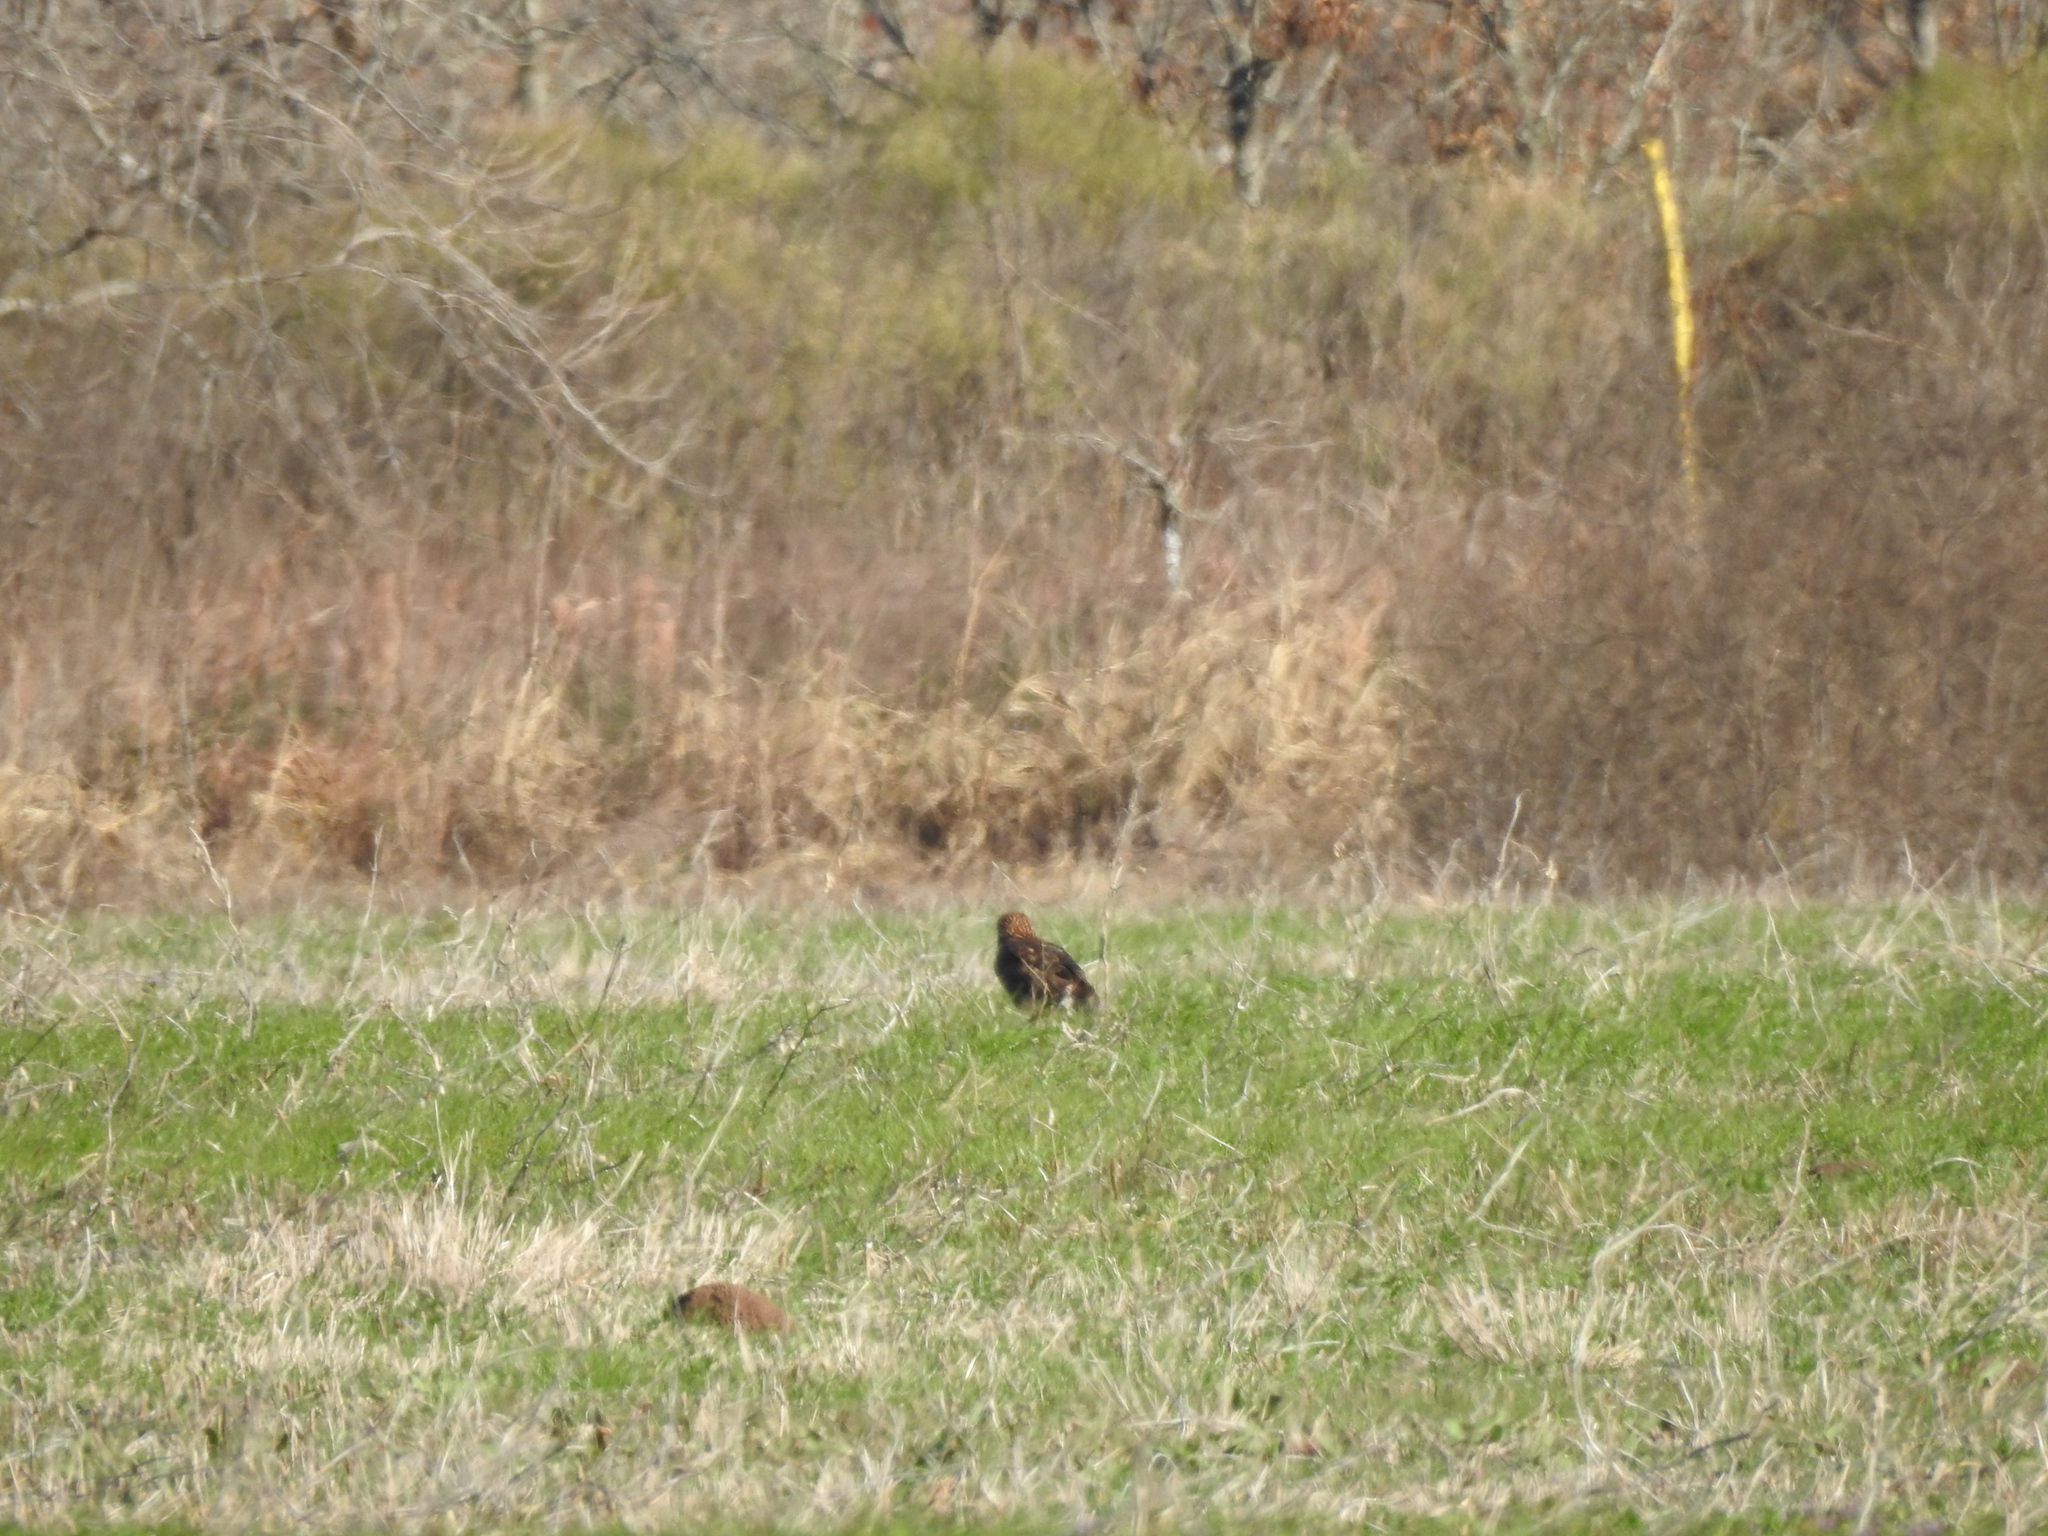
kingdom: Animalia
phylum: Chordata
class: Aves
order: Accipitriformes
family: Accipitridae
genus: Buteo
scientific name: Buteo jamaicensis
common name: Red-tailed hawk
